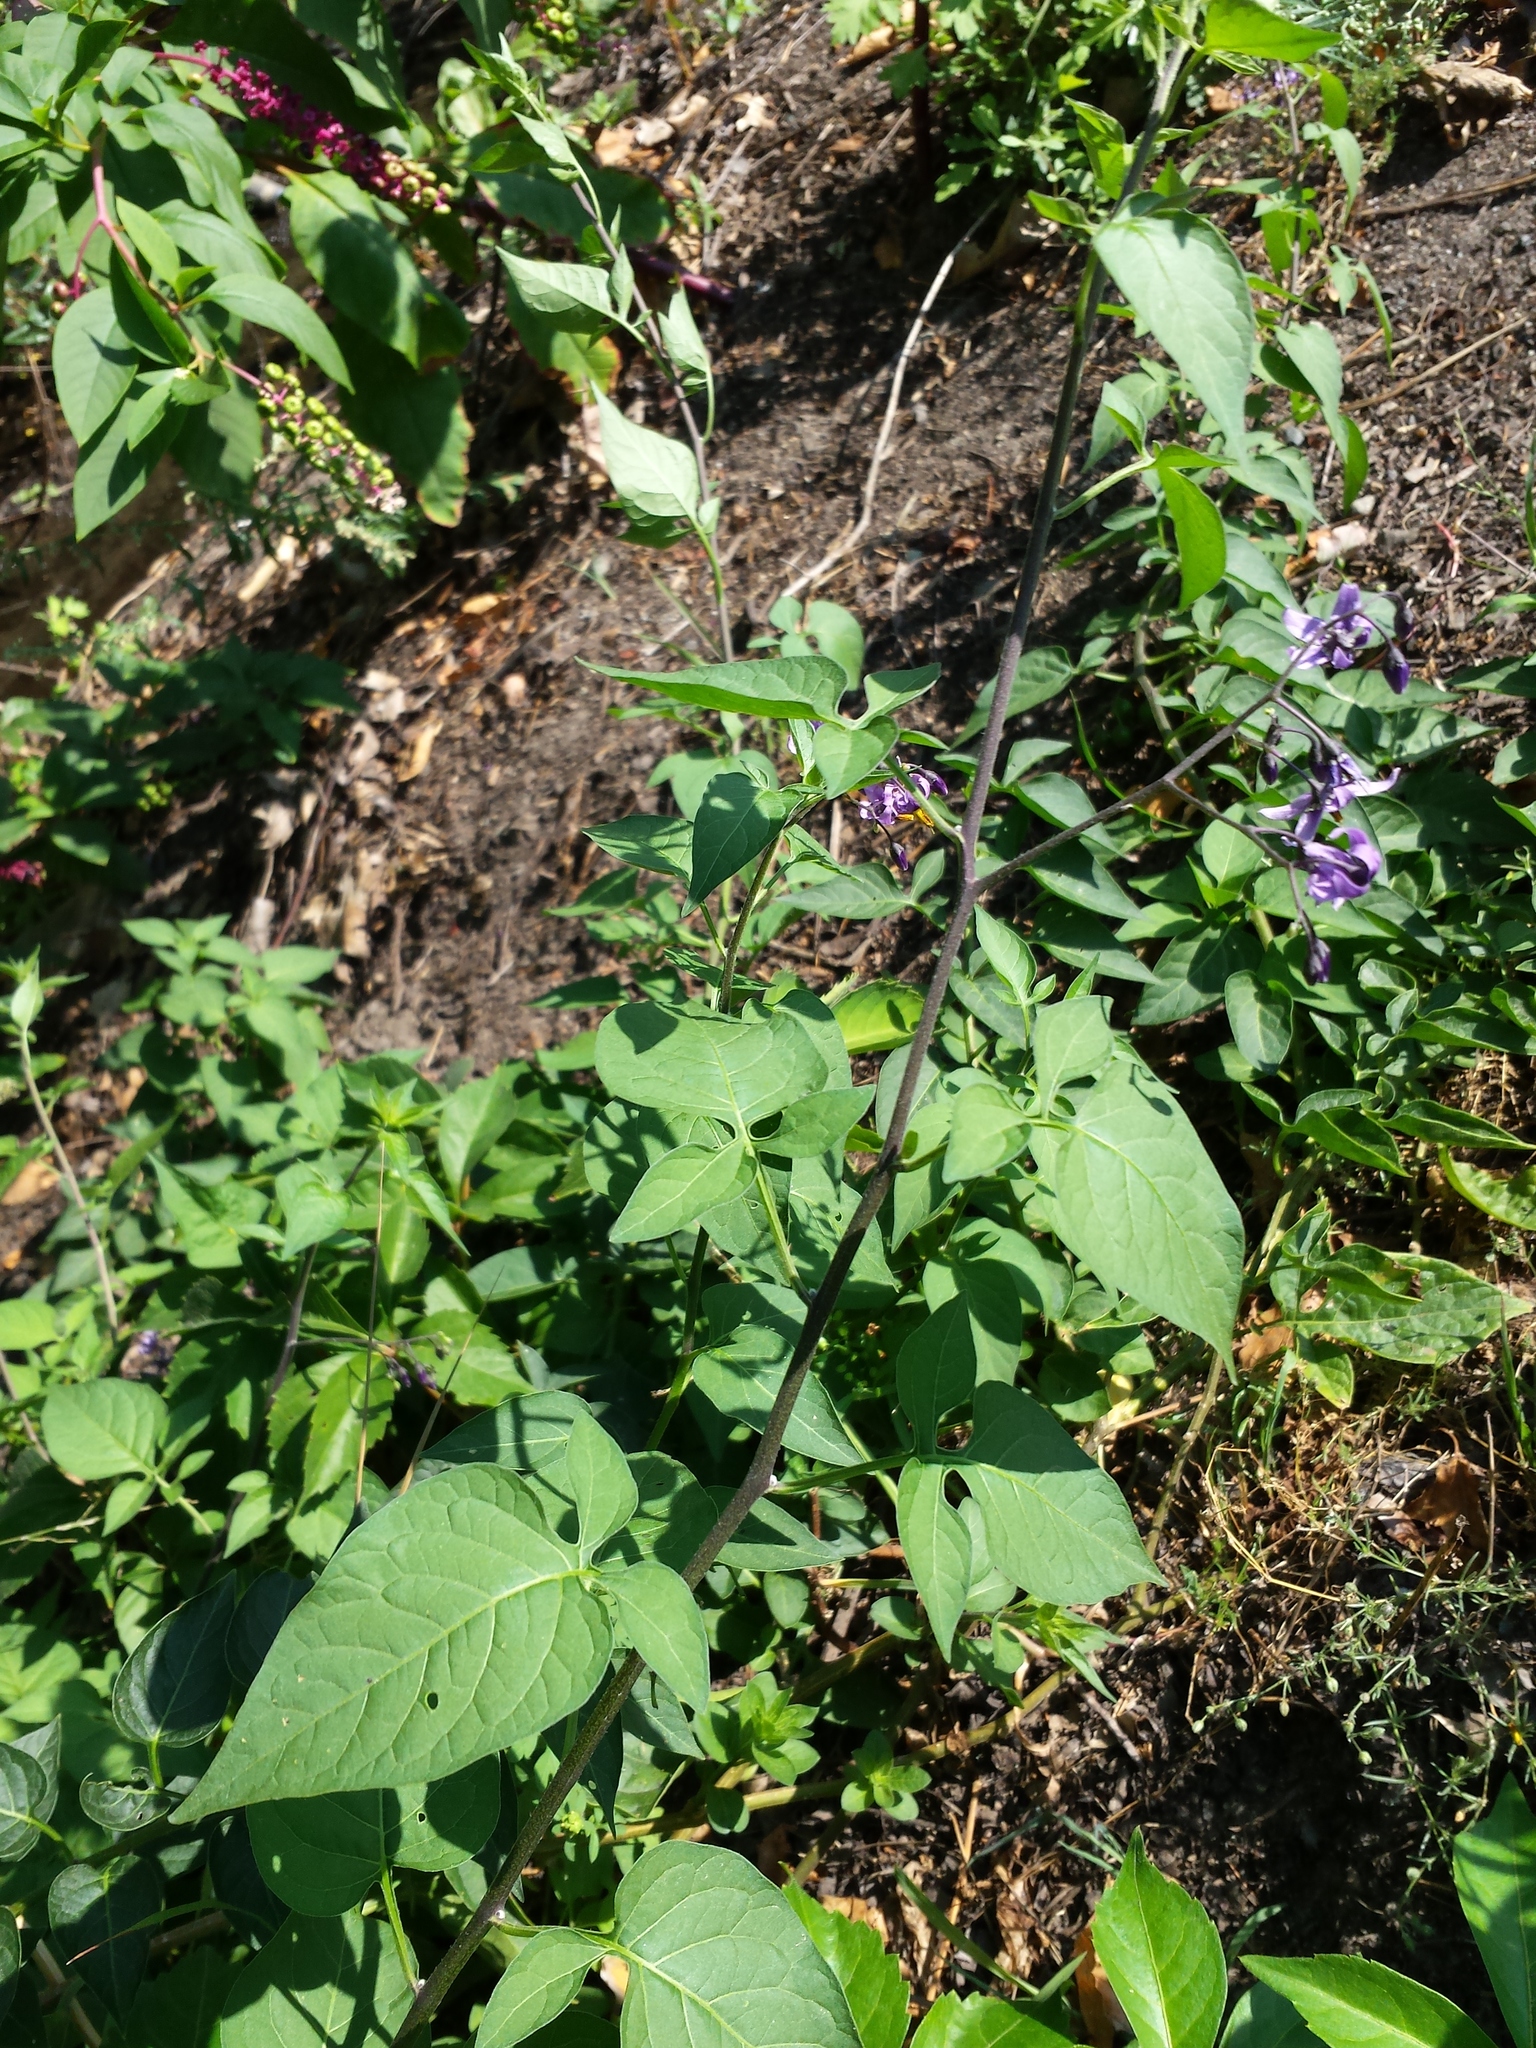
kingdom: Plantae
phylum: Tracheophyta
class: Magnoliopsida
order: Solanales
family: Solanaceae
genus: Solanum
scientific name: Solanum dulcamara
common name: Climbing nightshade
